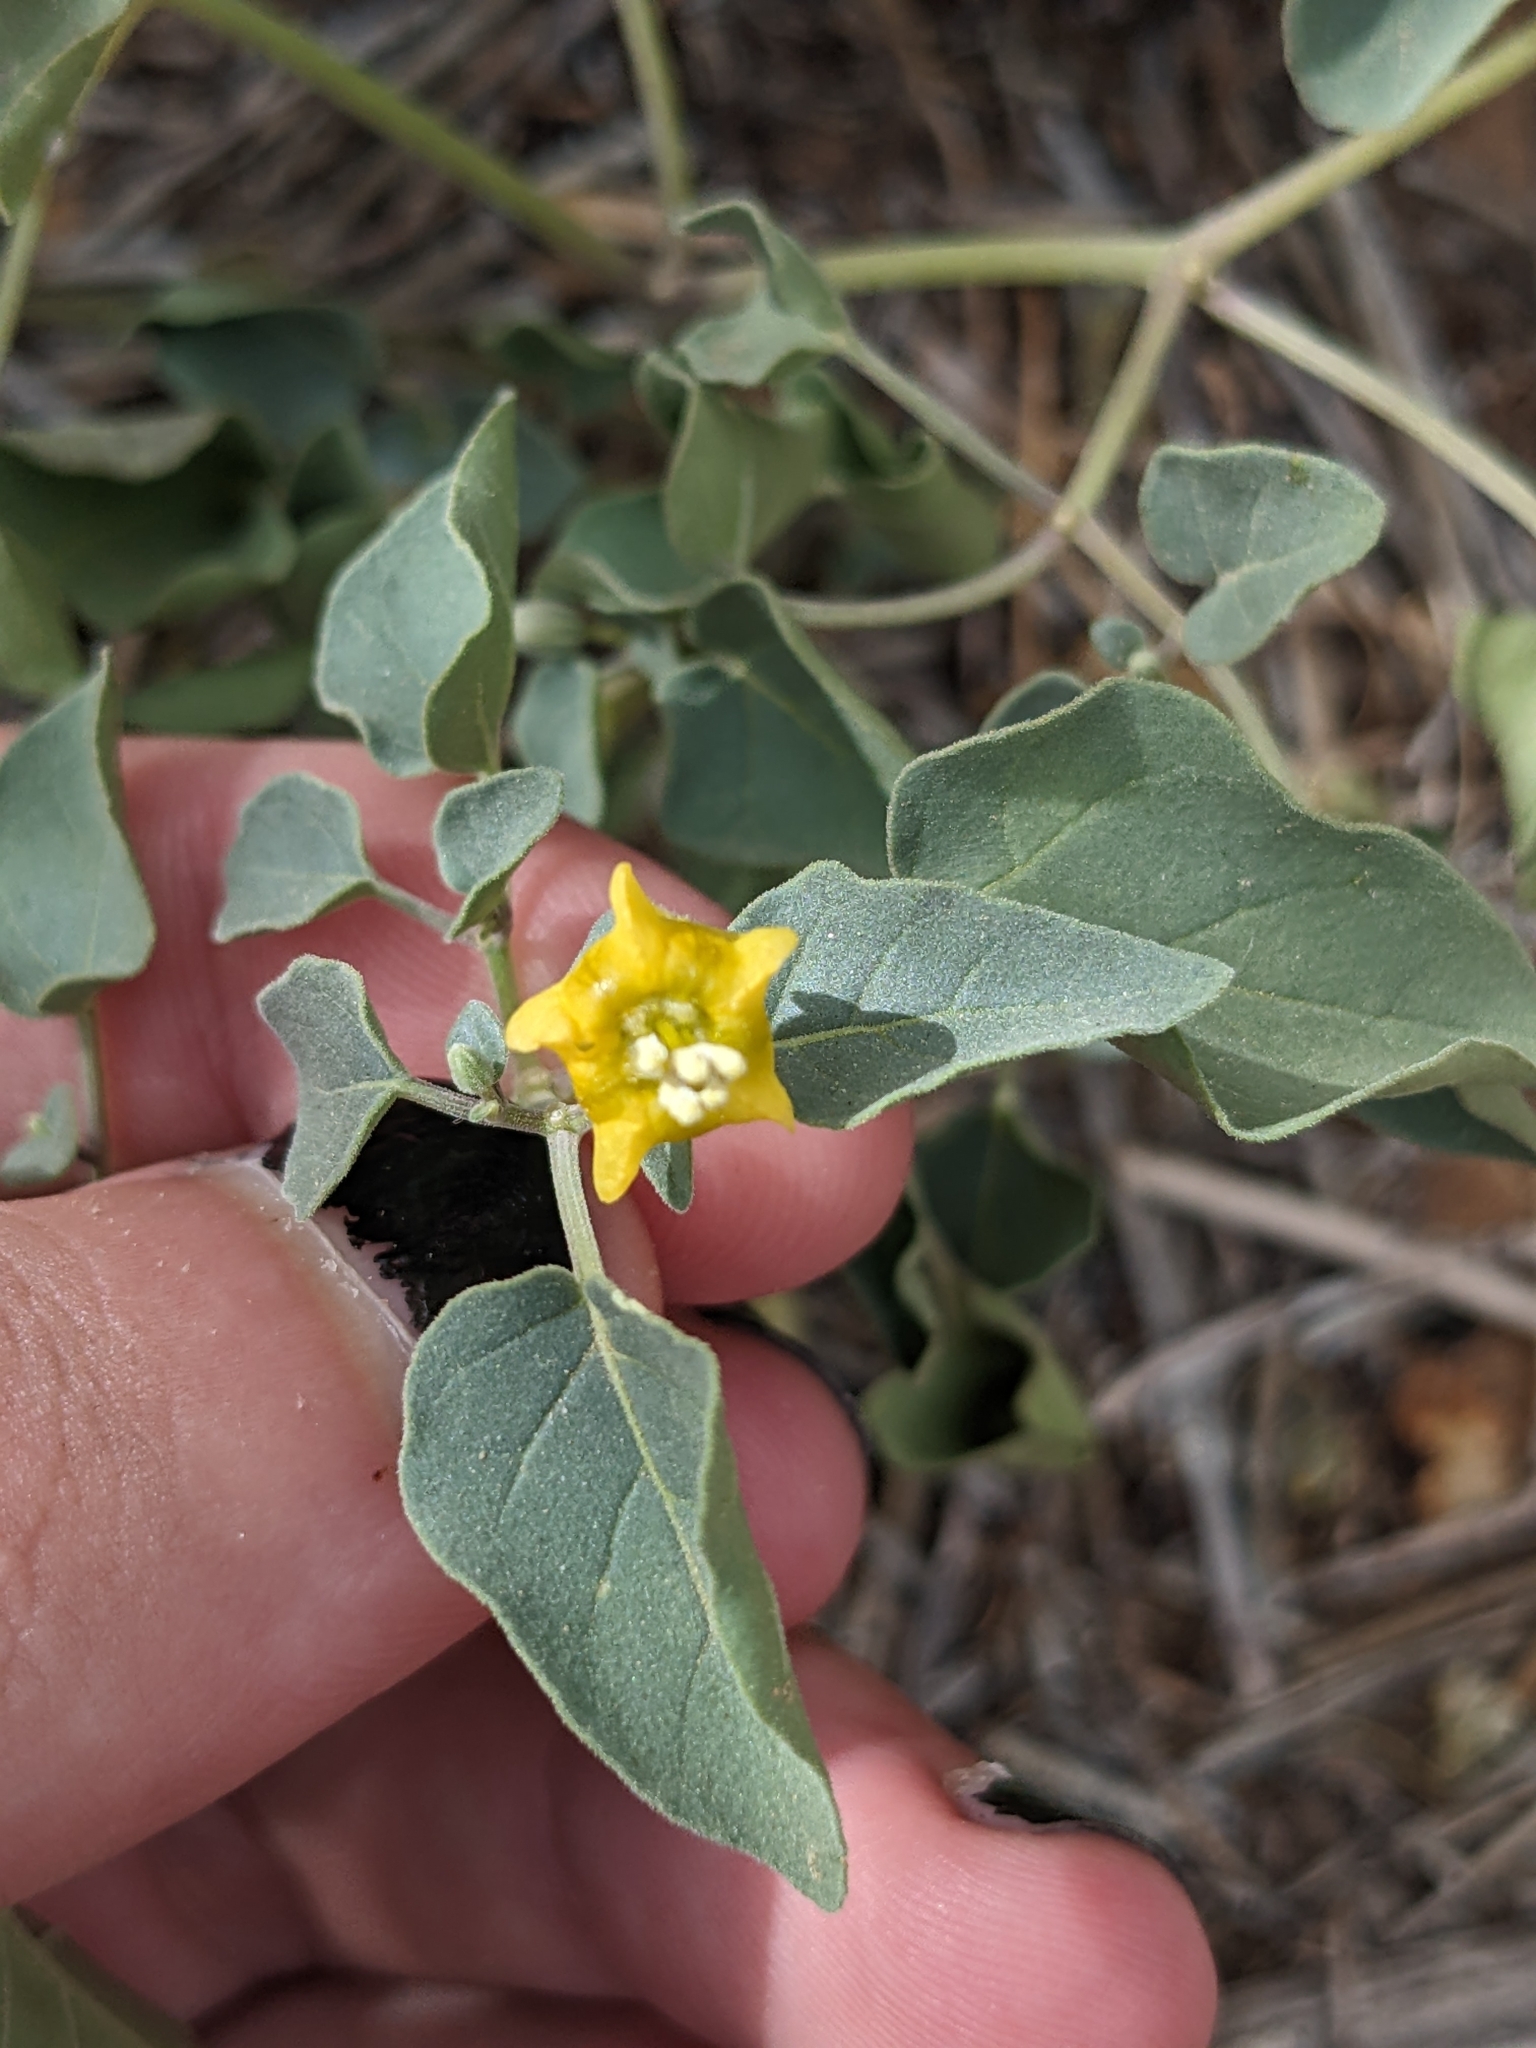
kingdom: Plantae
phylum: Tracheophyta
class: Magnoliopsida
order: Solanales
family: Solanaceae
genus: Physalis
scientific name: Physalis crassifolia
